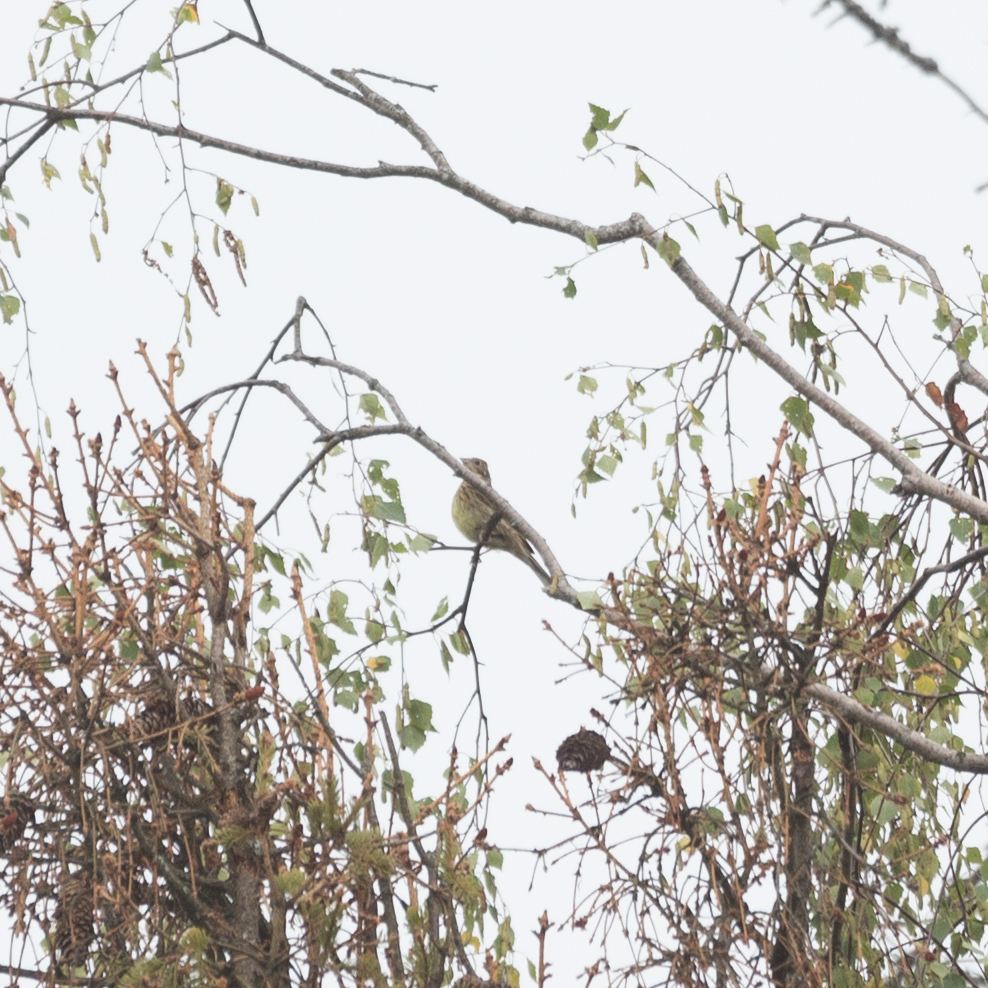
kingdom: Animalia
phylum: Chordata
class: Aves
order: Passeriformes
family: Emberizidae
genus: Emberiza
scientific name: Emberiza citrinella
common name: Yellowhammer
